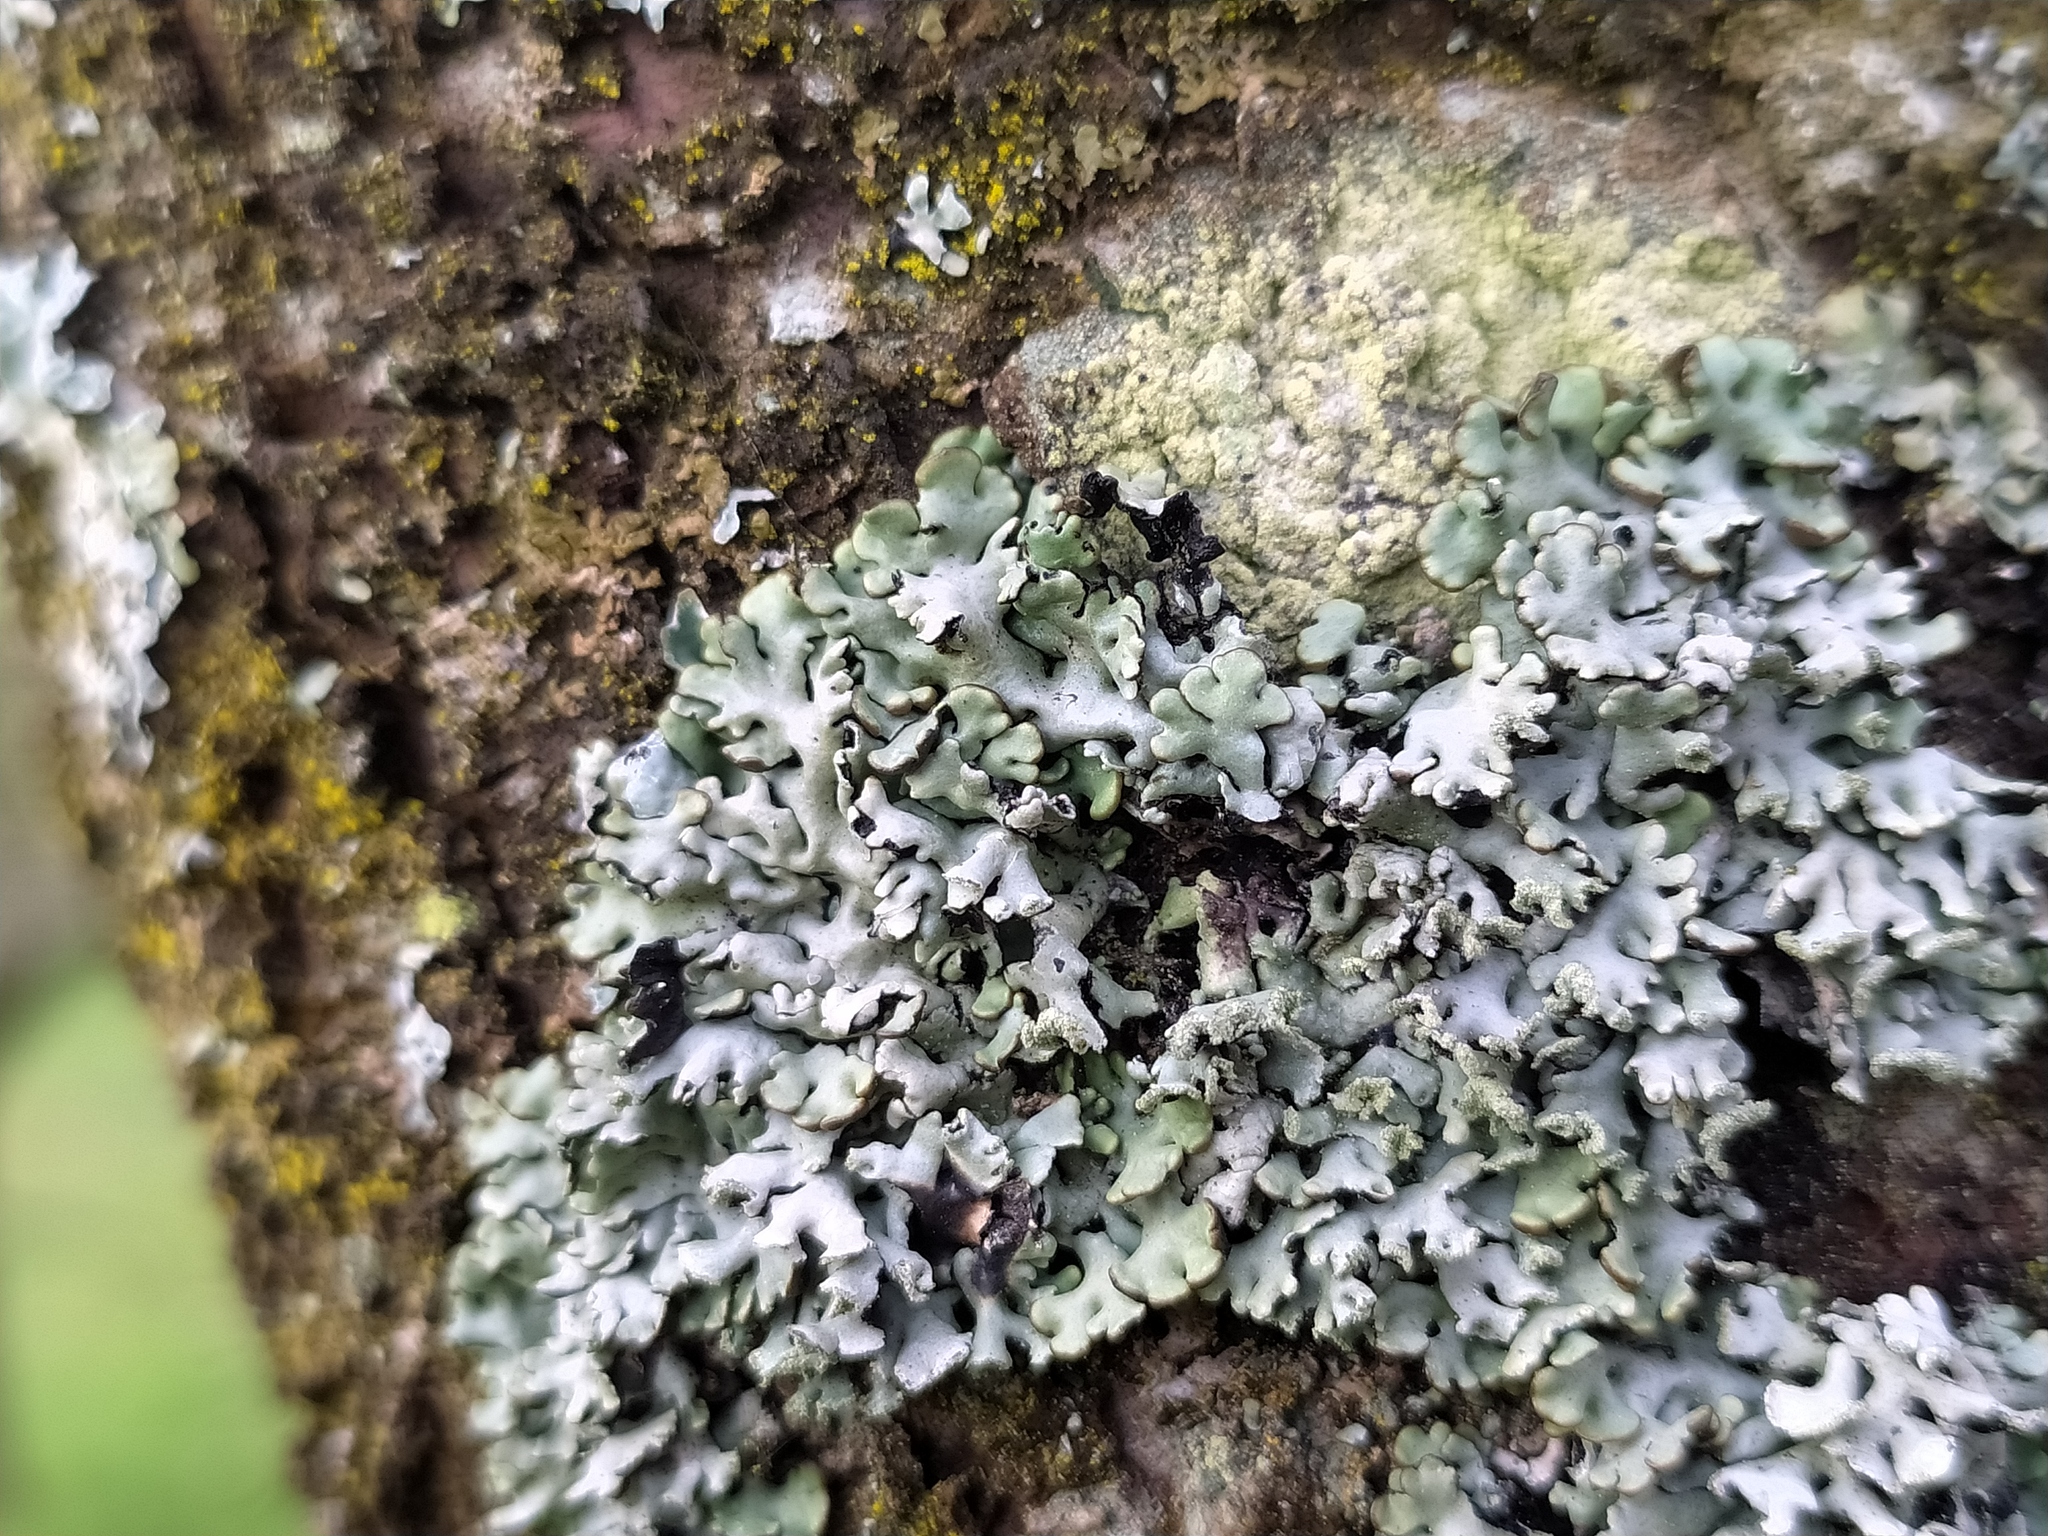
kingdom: Fungi
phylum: Ascomycota
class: Lecanoromycetes
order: Lecanorales
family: Parmeliaceae
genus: Hypogymnia
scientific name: Hypogymnia physodes
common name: Dark crottle
